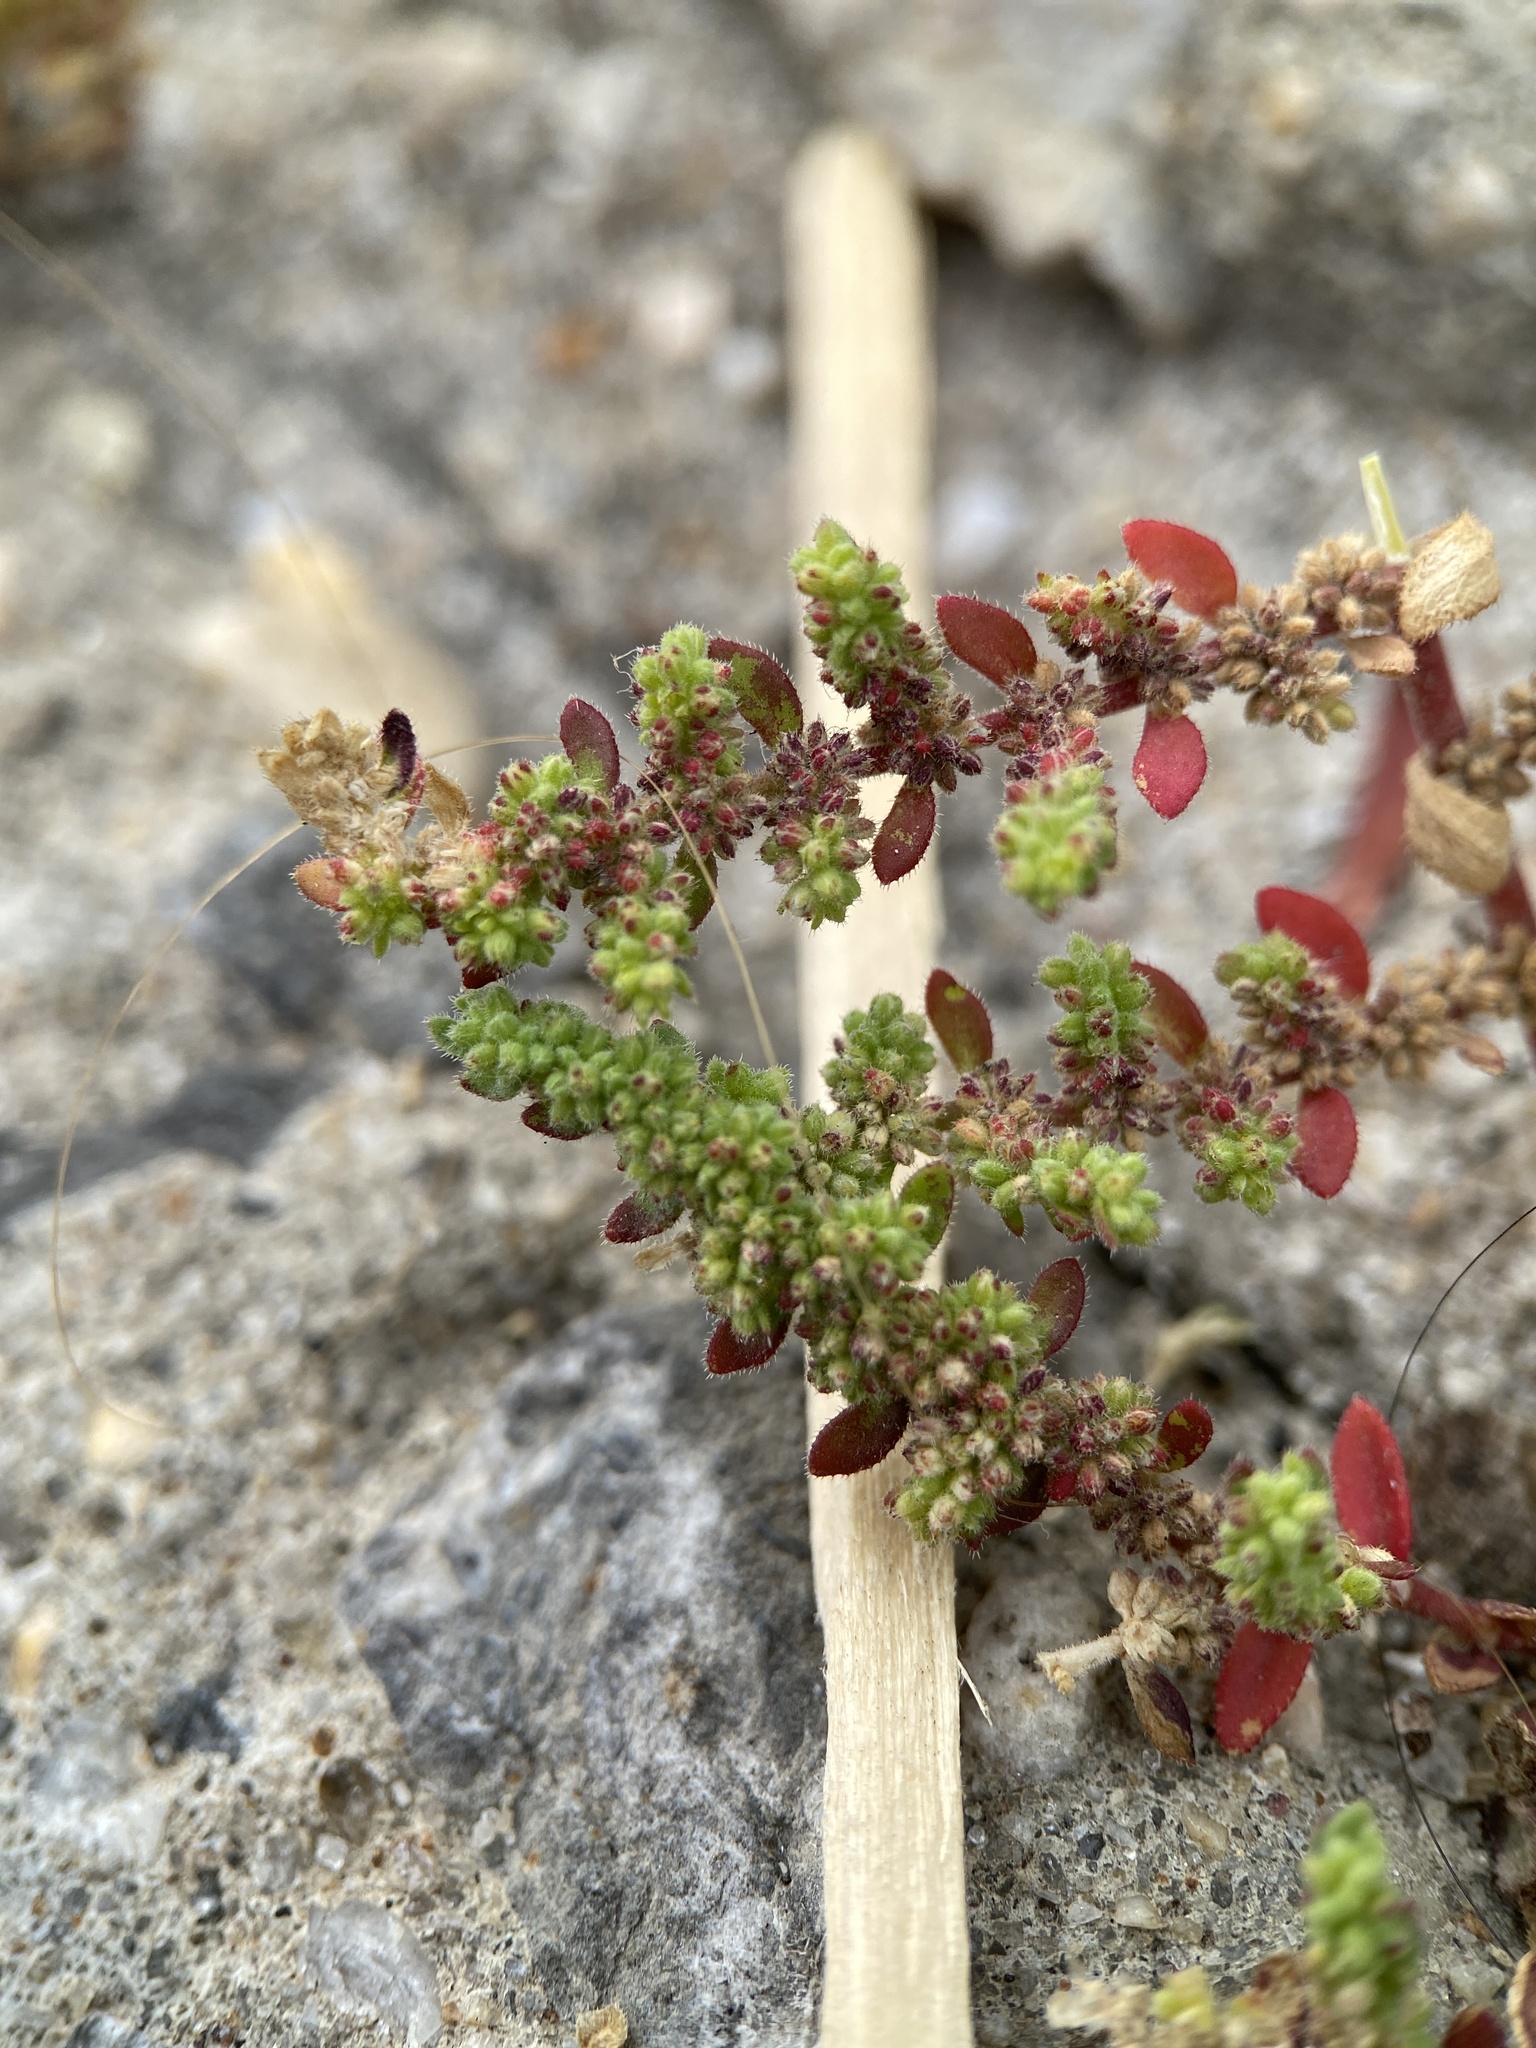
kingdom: Plantae
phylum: Tracheophyta
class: Magnoliopsida
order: Caryophyllales
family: Caryophyllaceae
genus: Herniaria
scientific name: Herniaria hirsuta
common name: Hairy rupturewort
